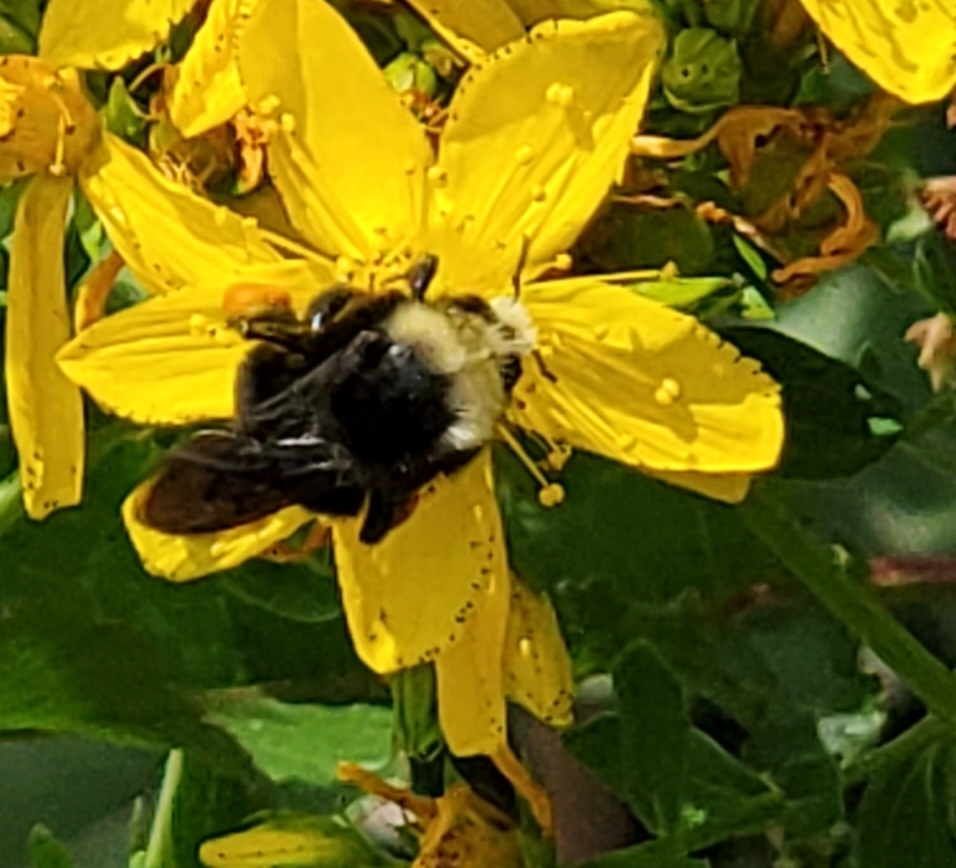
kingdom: Animalia
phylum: Arthropoda
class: Insecta
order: Hymenoptera
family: Apidae
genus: Bombus
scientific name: Bombus vosnesenskii
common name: Vosnesensky bumble bee
